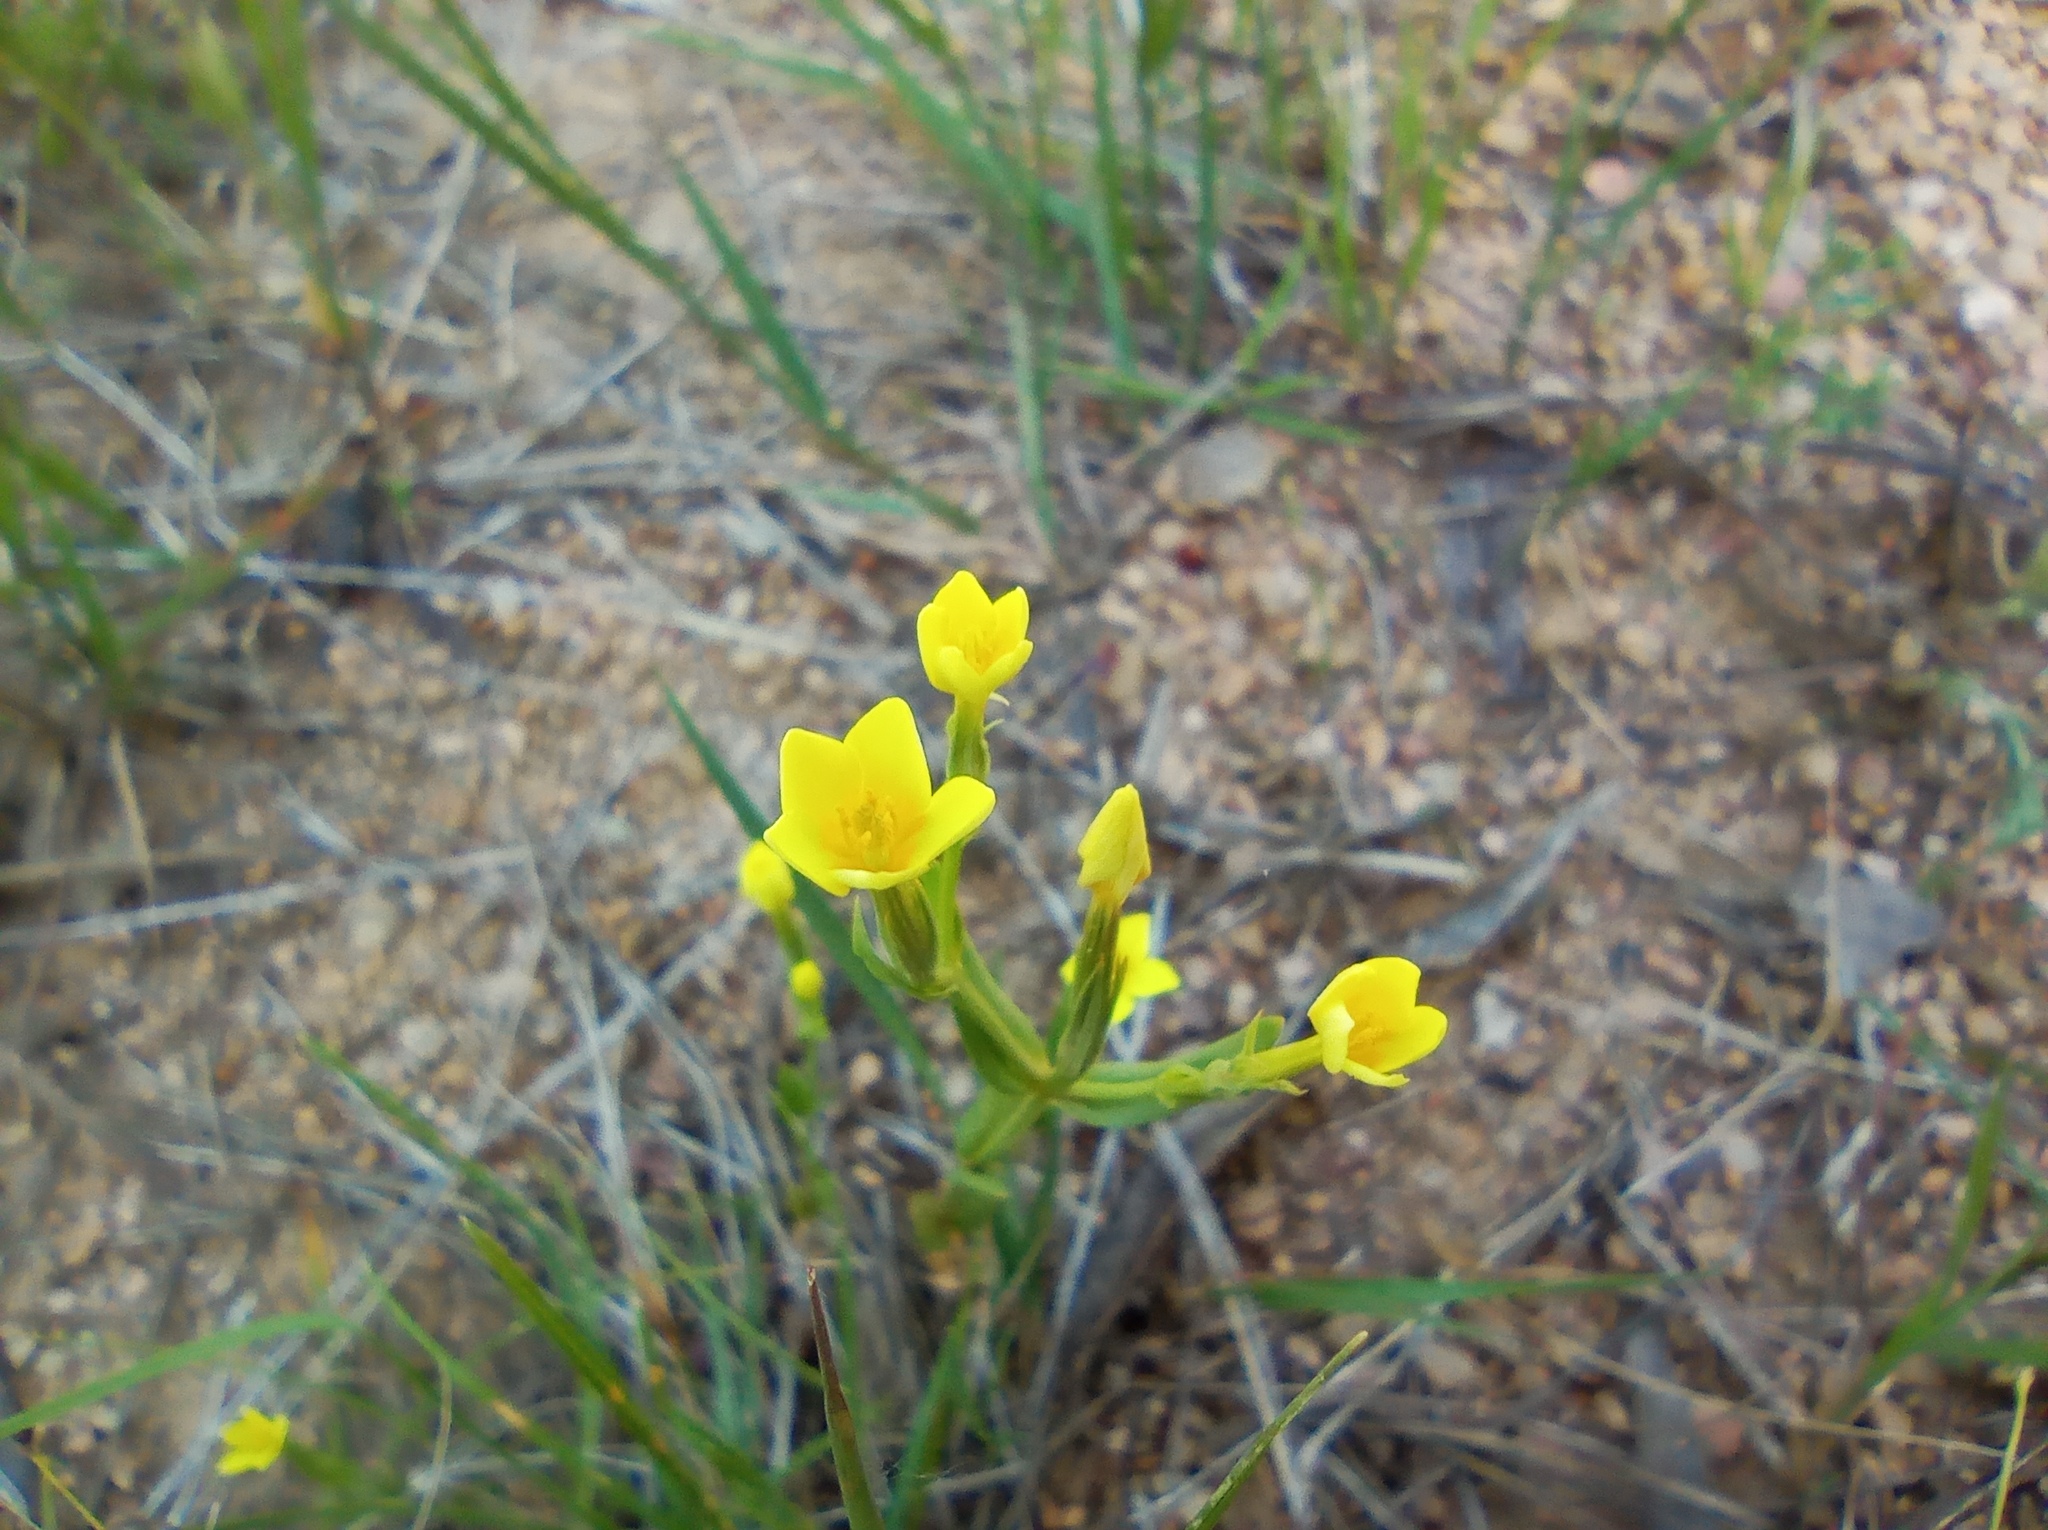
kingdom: Plantae
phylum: Tracheophyta
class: Magnoliopsida
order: Gentianales
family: Gentianaceae
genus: Centaurium
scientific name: Centaurium maritimum
